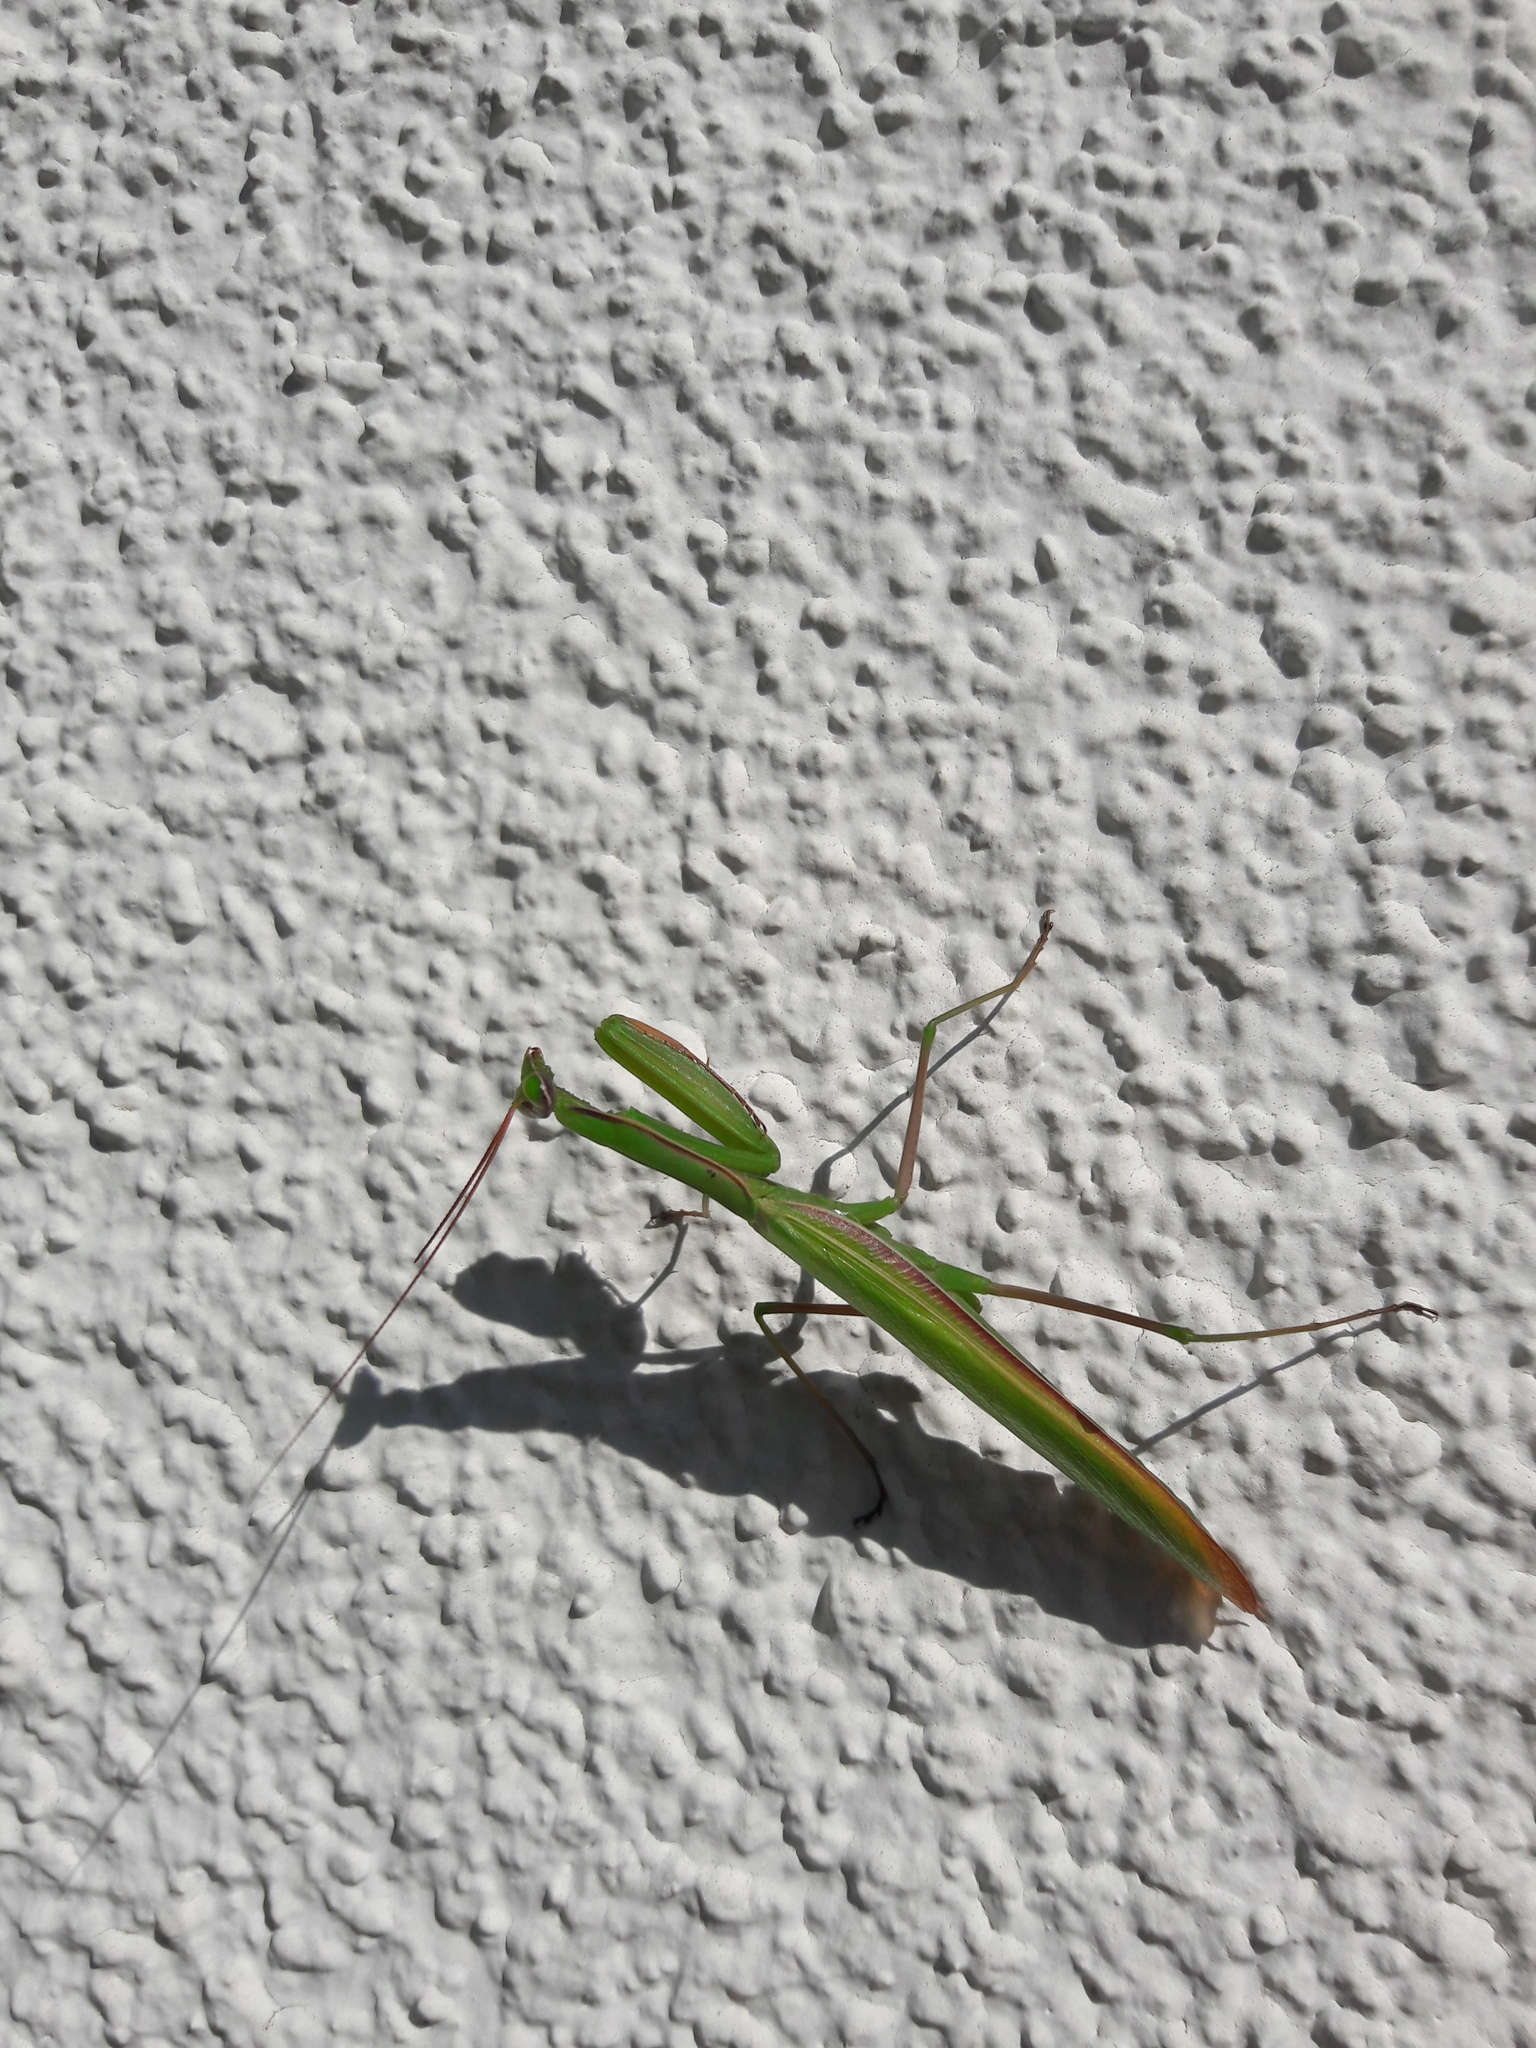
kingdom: Animalia
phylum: Arthropoda
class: Insecta
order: Mantodea
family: Mantidae
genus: Mantis
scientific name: Mantis religiosa
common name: Praying mantis
